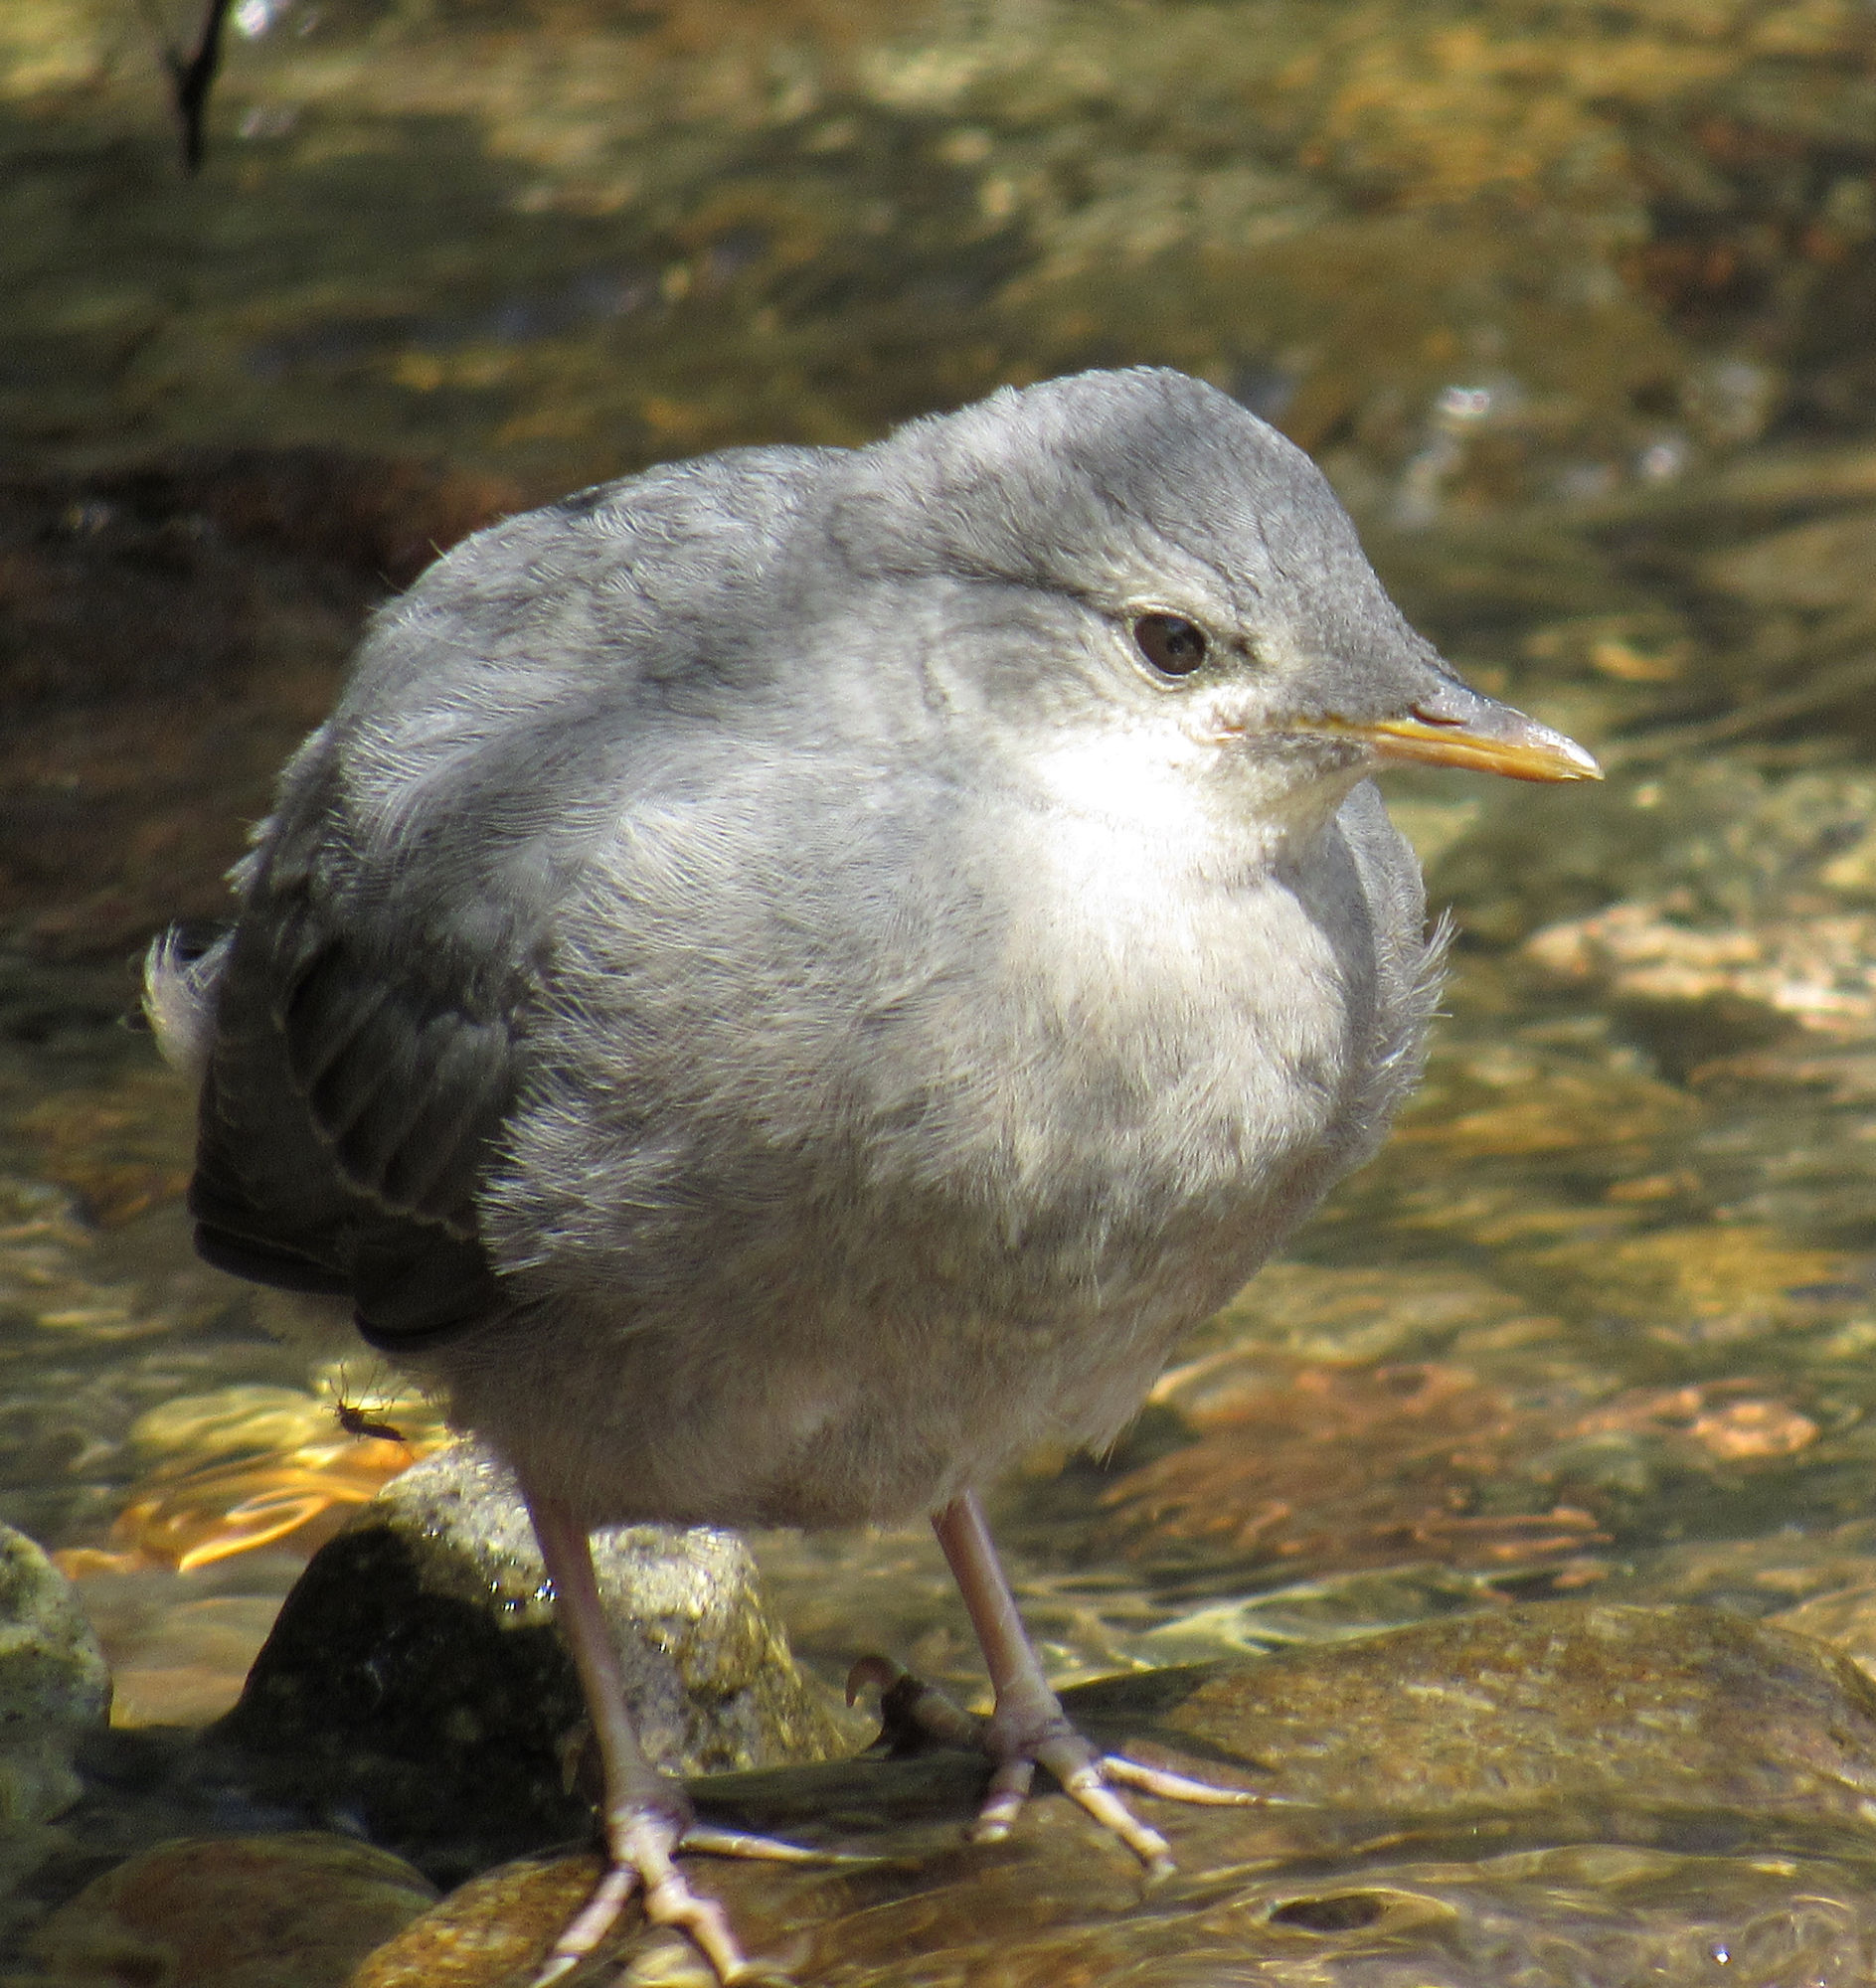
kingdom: Animalia
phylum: Chordata
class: Aves
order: Passeriformes
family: Cinclidae
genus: Cinclus
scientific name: Cinclus mexicanus
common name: American dipper
